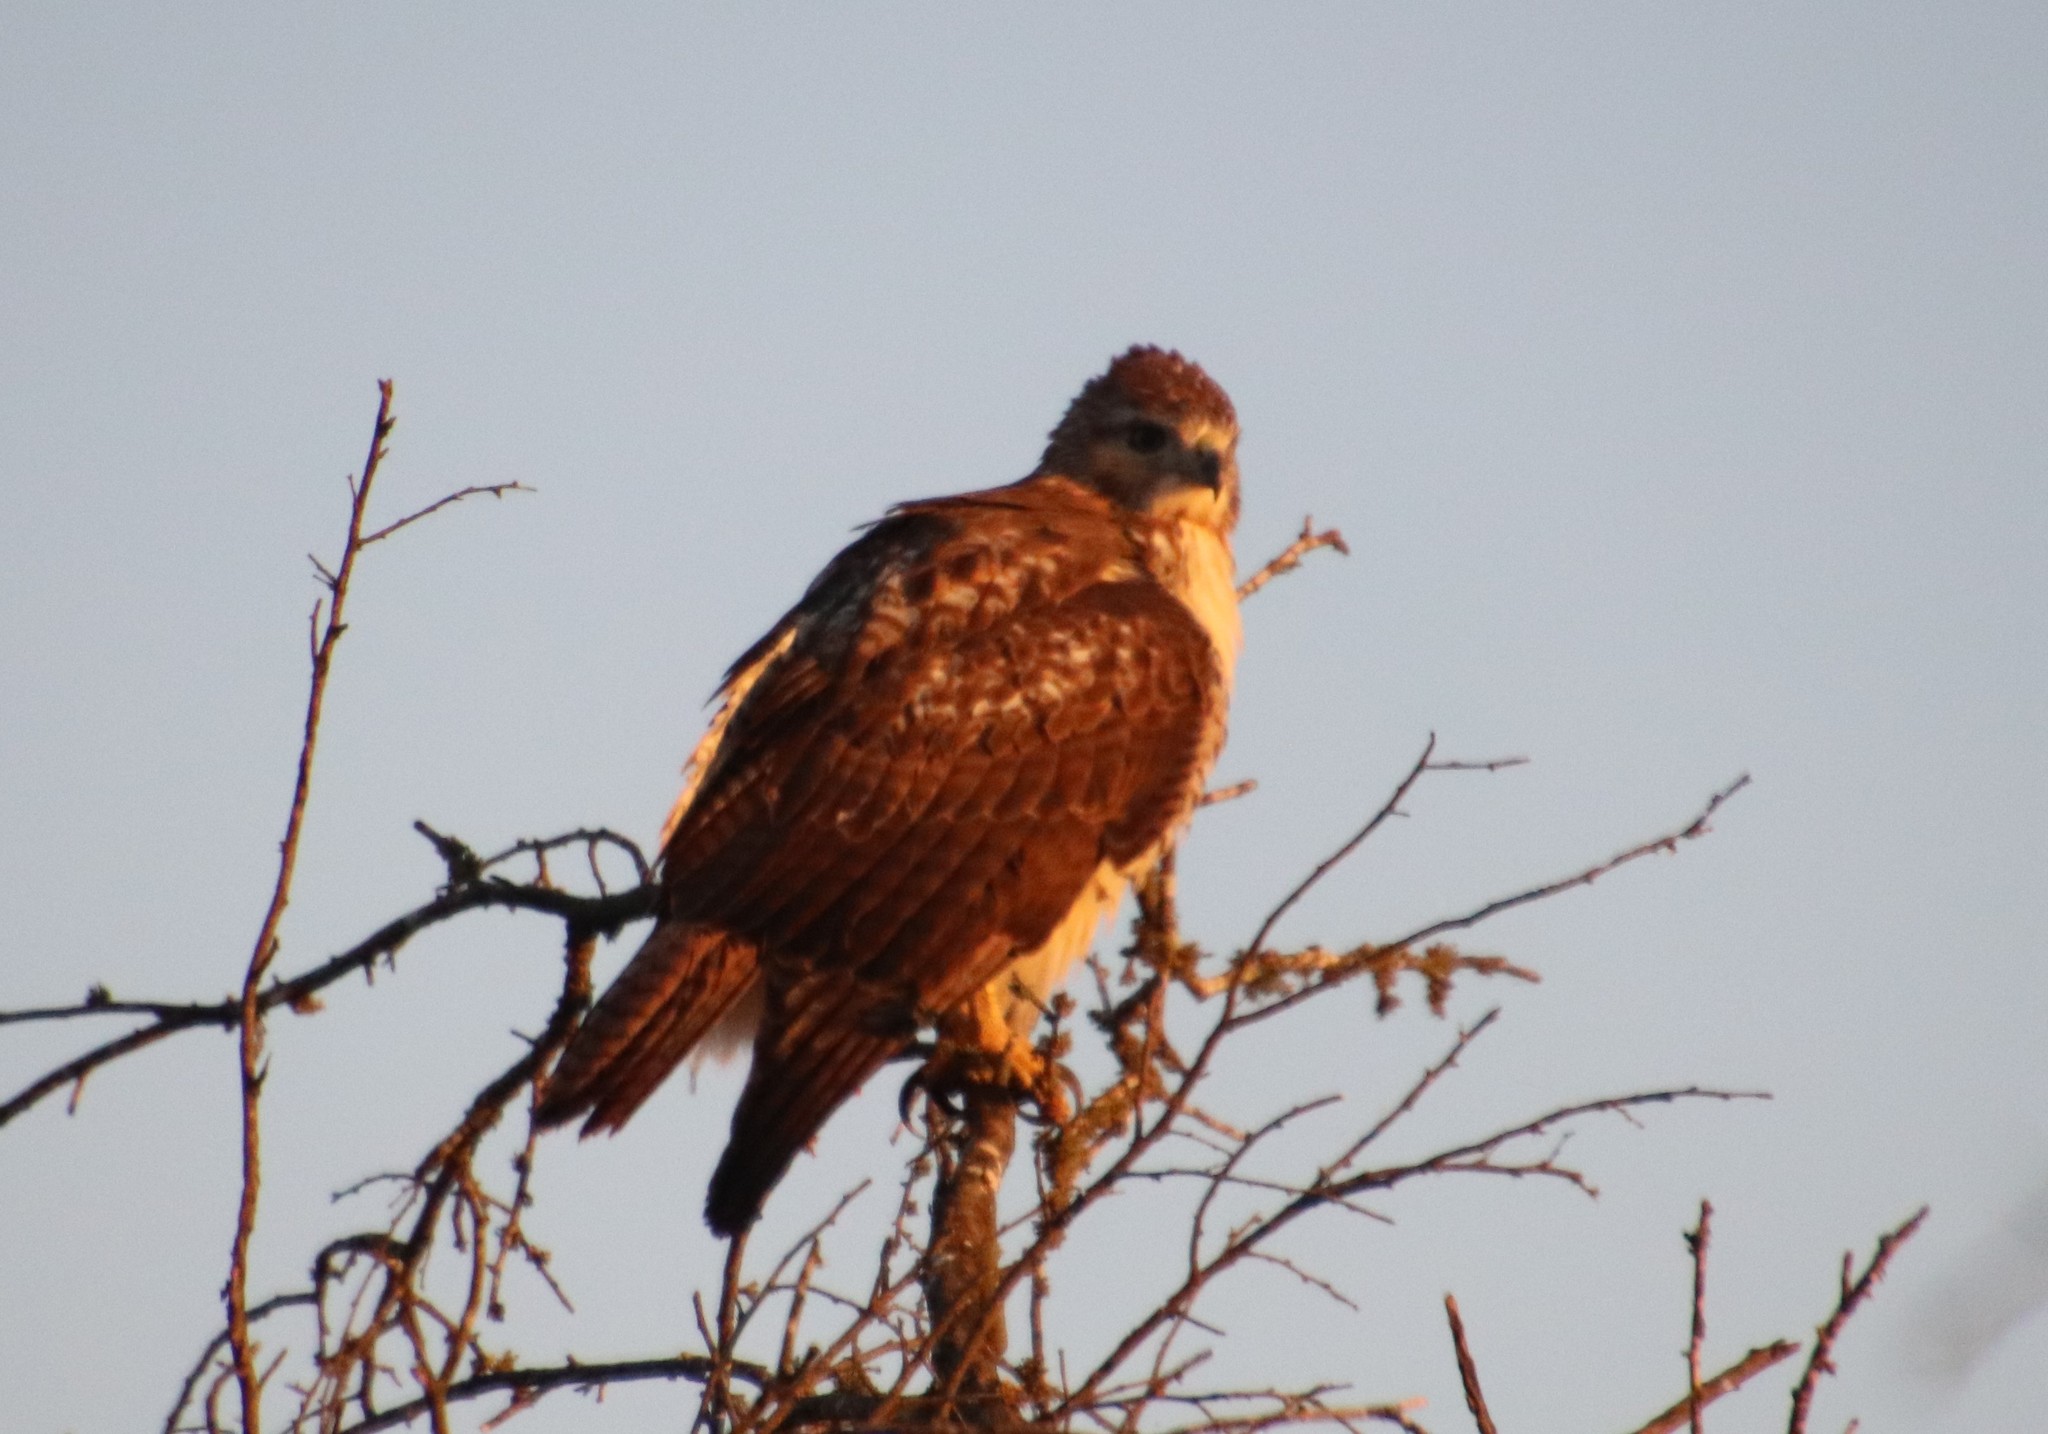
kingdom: Animalia
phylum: Chordata
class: Aves
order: Accipitriformes
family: Accipitridae
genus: Buteo
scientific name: Buteo jamaicensis
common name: Red-tailed hawk
